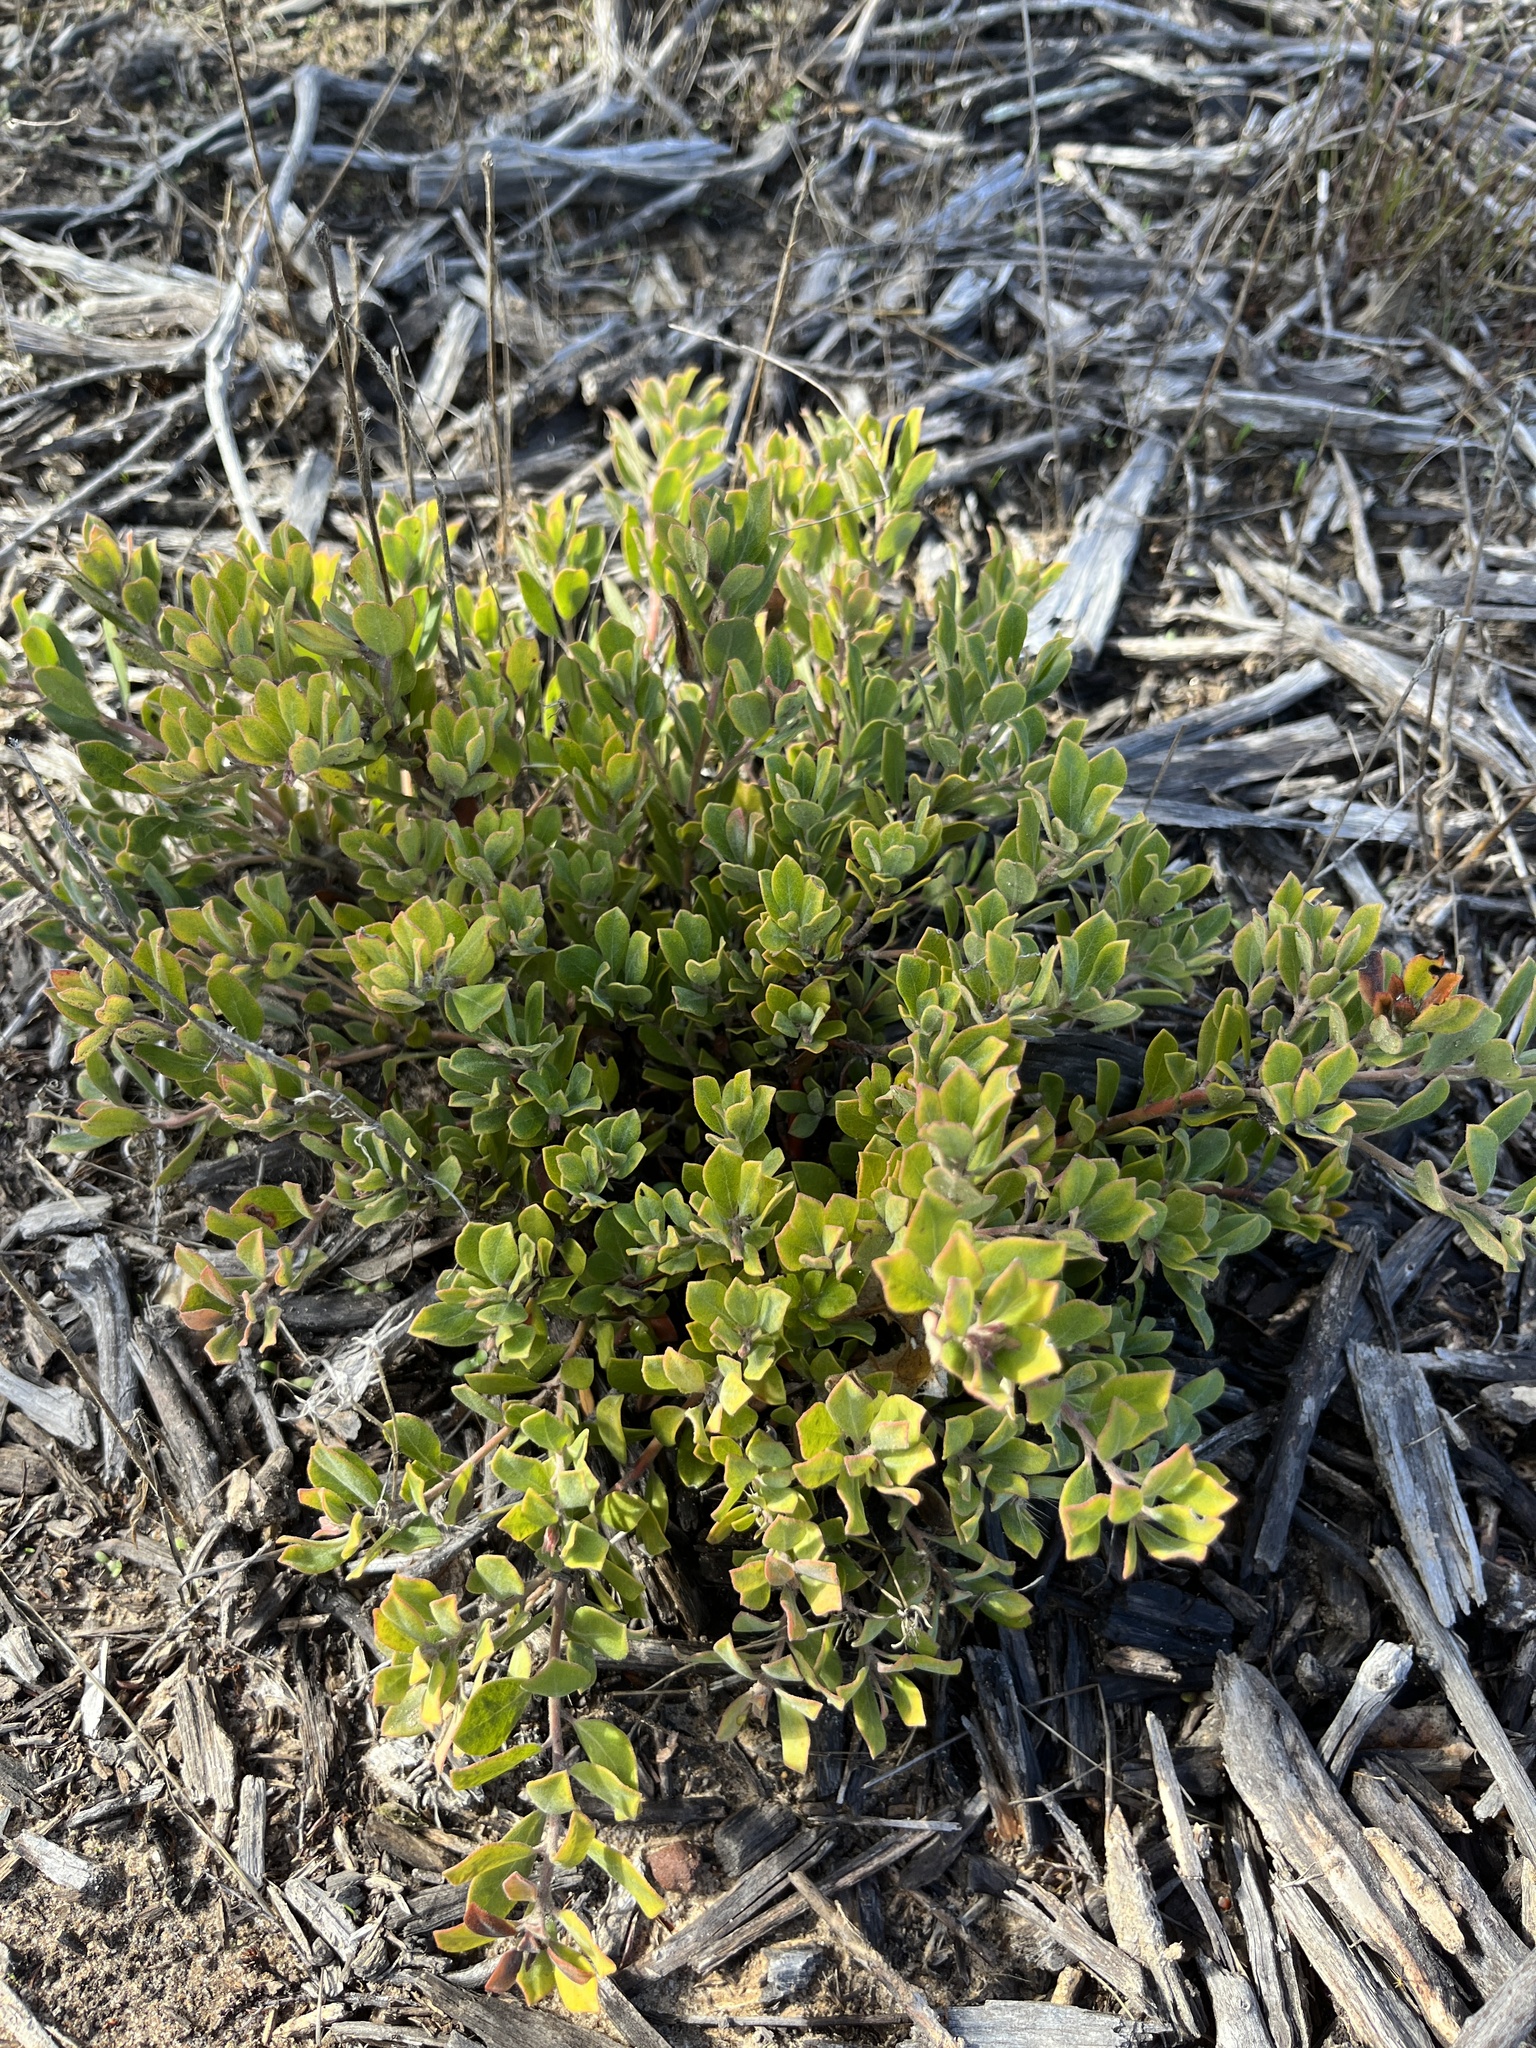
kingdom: Plantae
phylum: Tracheophyta
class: Magnoliopsida
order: Ericales
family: Ericaceae
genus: Arctostaphylos
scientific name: Arctostaphylos pumila
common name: Sandmat manzanita
